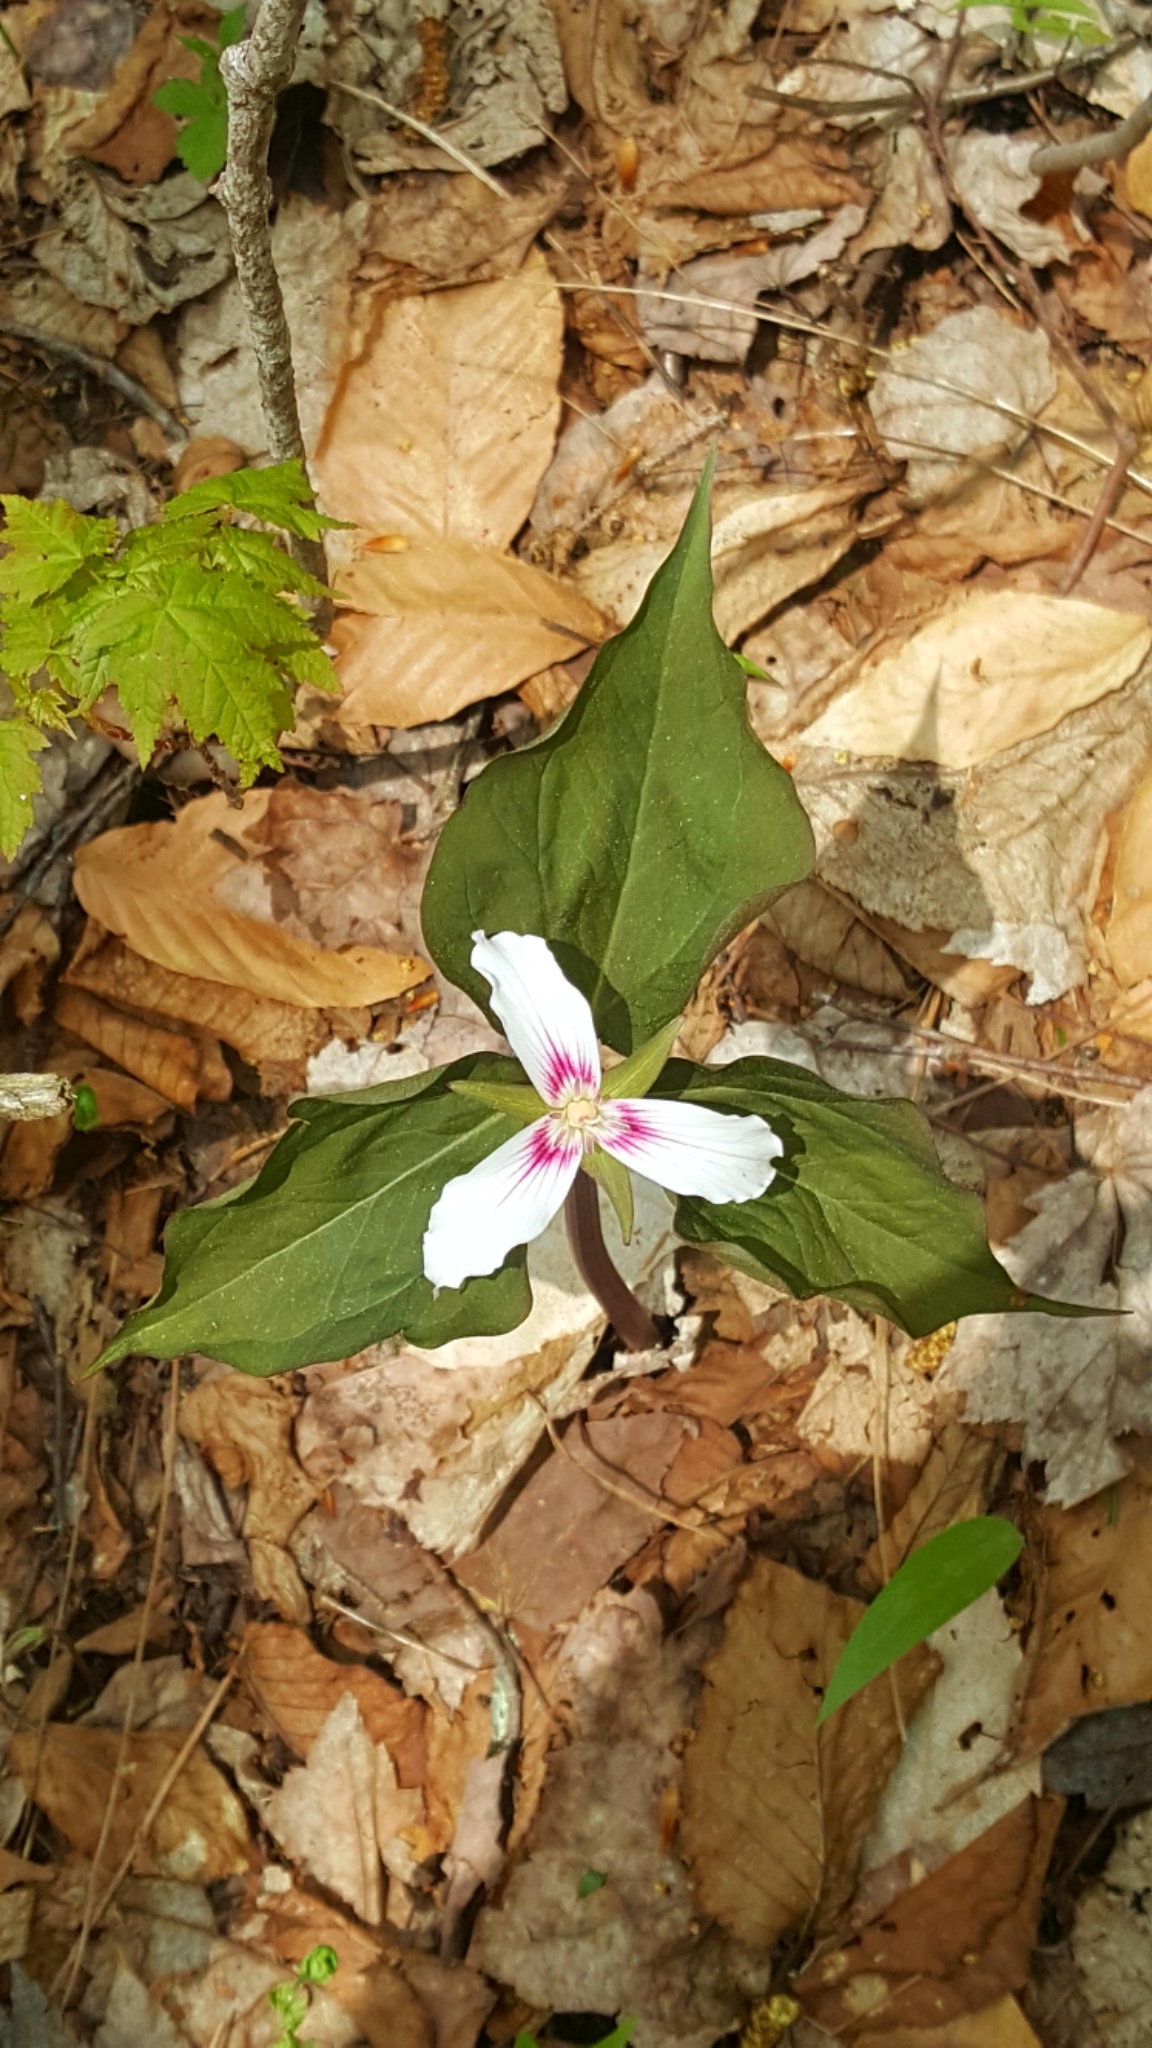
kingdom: Plantae
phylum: Tracheophyta
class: Liliopsida
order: Liliales
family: Melanthiaceae
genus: Trillium
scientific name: Trillium undulatum
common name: Paint trillium
